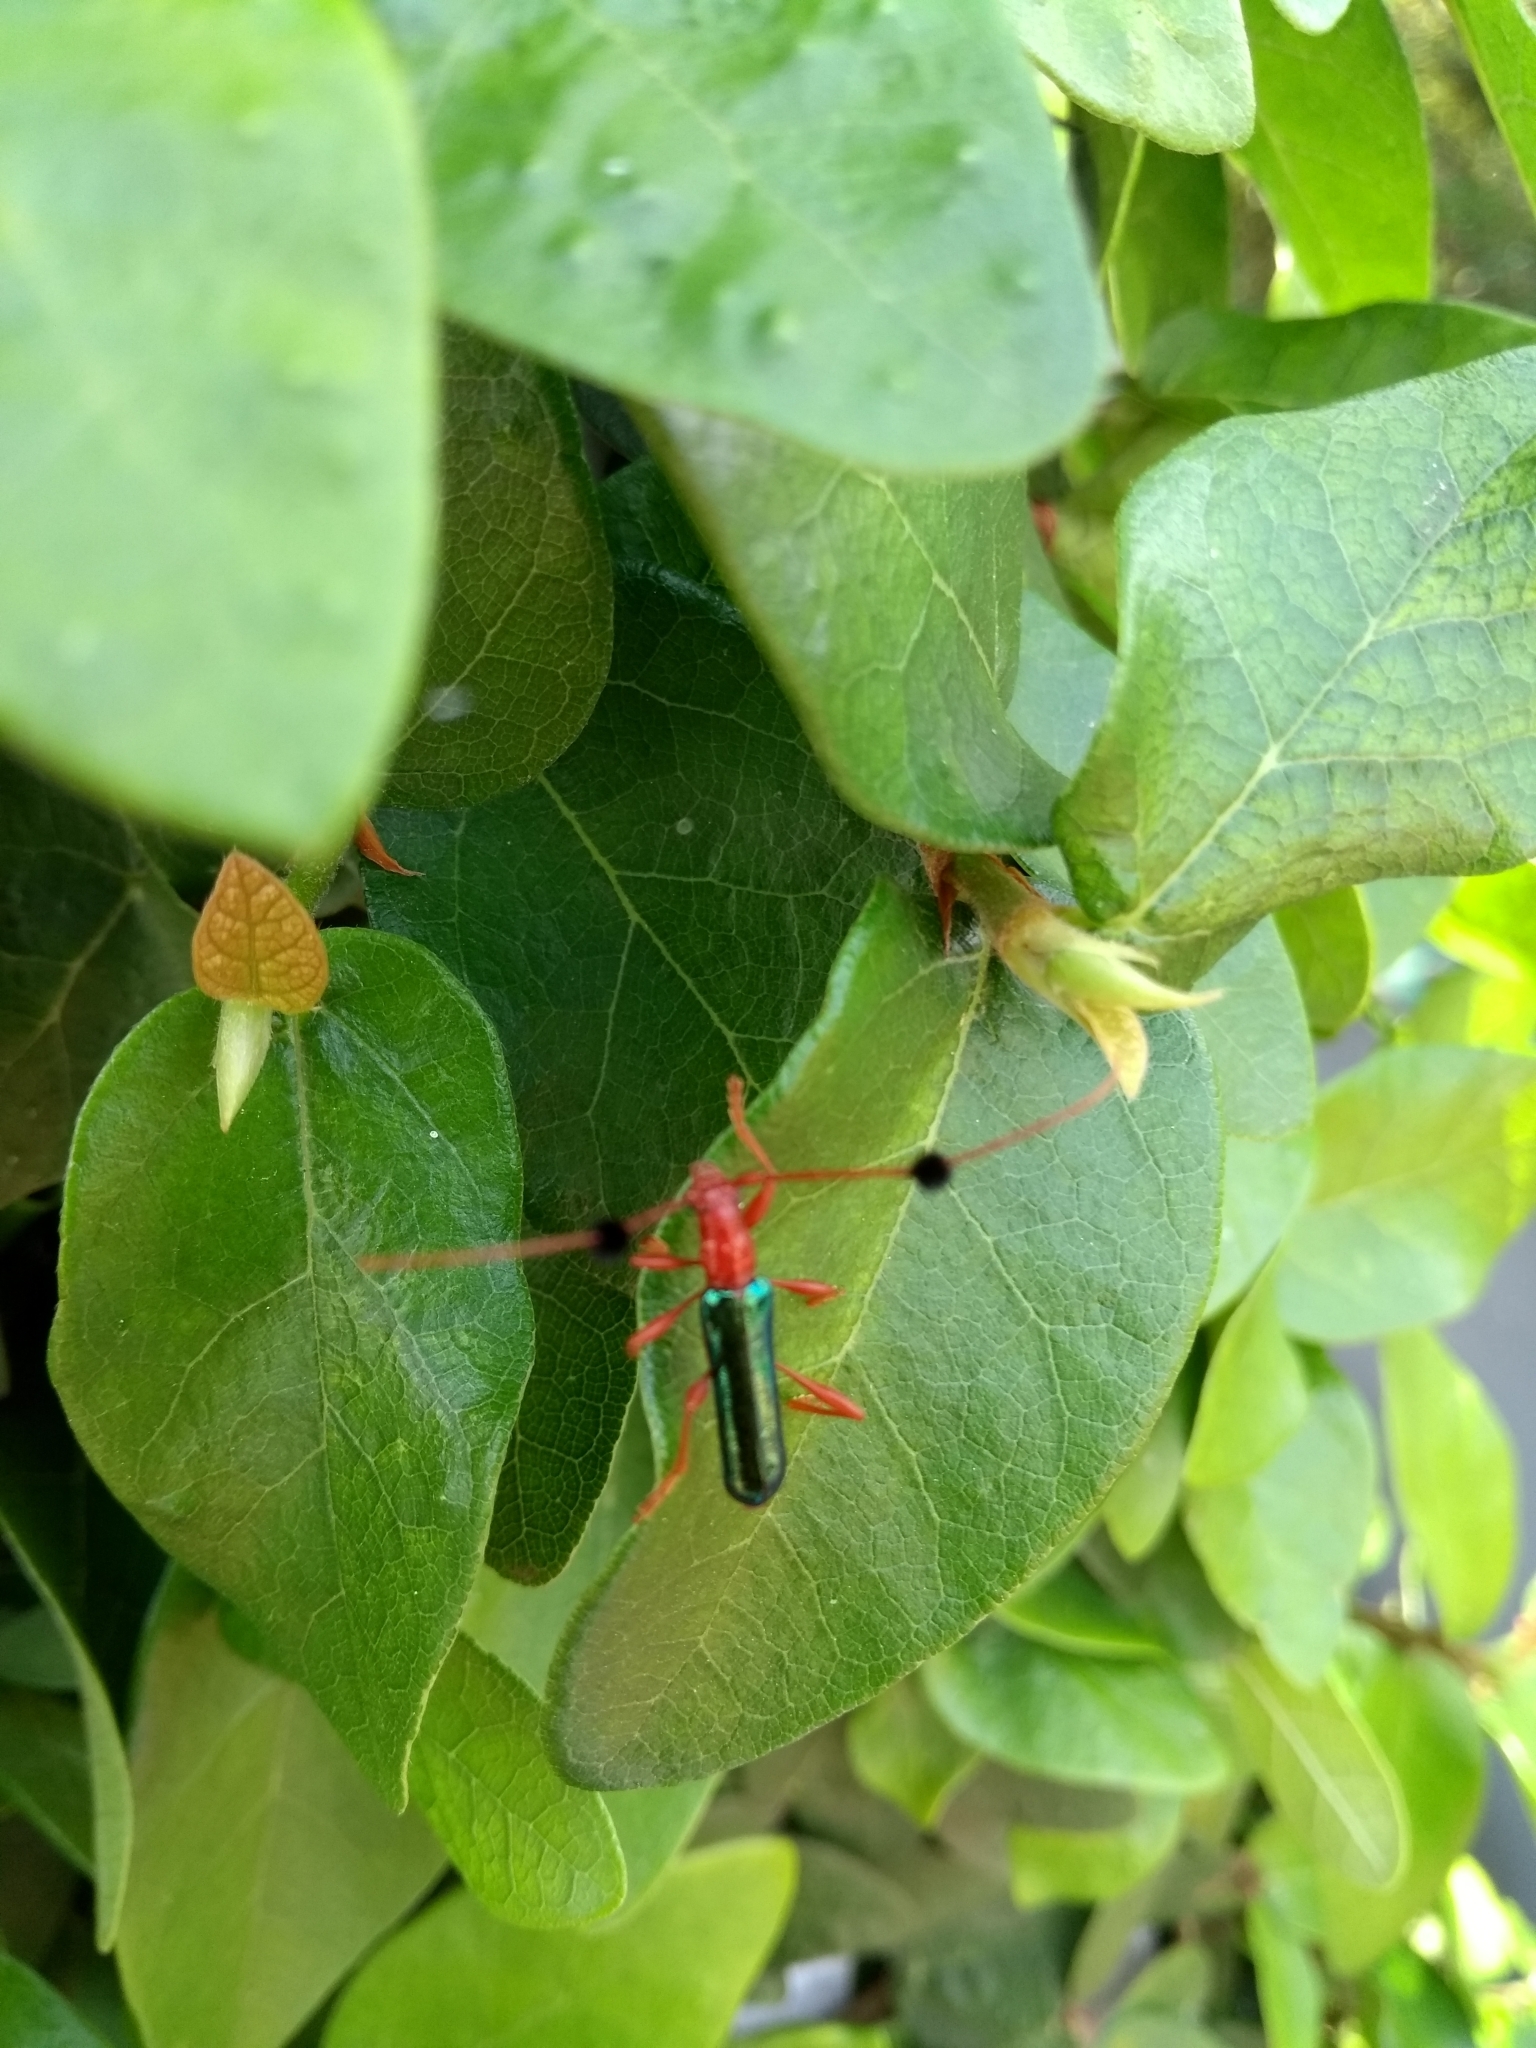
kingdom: Animalia
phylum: Arthropoda
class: Insecta
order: Coleoptera
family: Cerambycidae
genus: Paromoeocerus
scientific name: Paromoeocerus barbicornis
